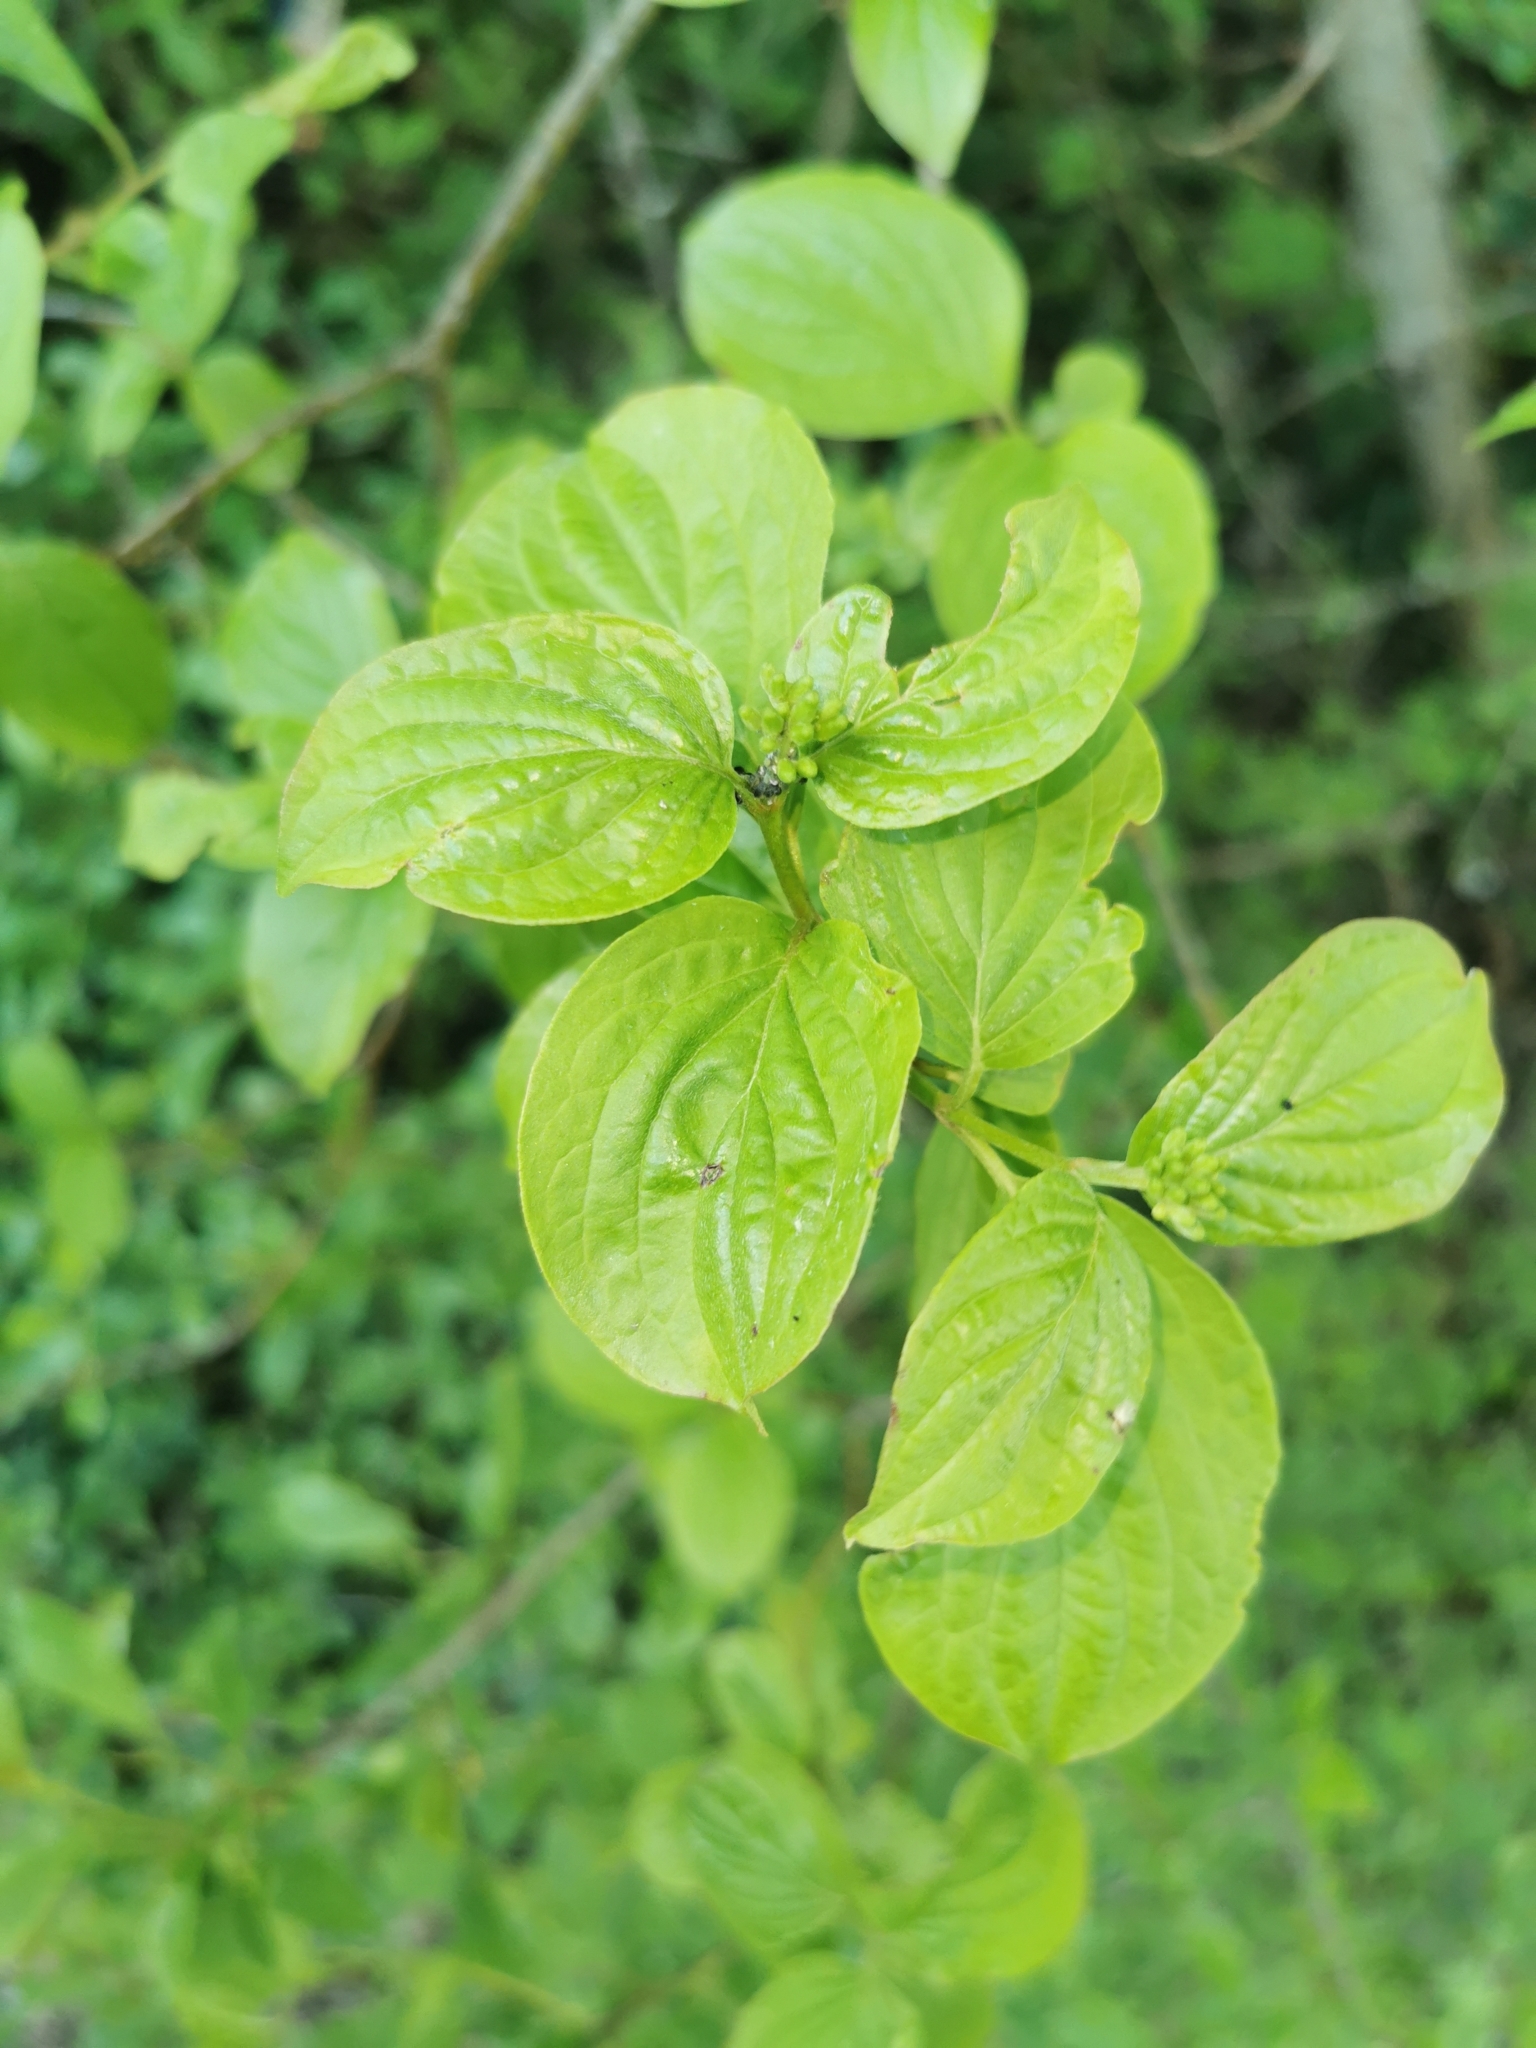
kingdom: Plantae
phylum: Tracheophyta
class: Magnoliopsida
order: Cornales
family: Cornaceae
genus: Cornus
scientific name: Cornus sanguinea
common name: Dogwood
